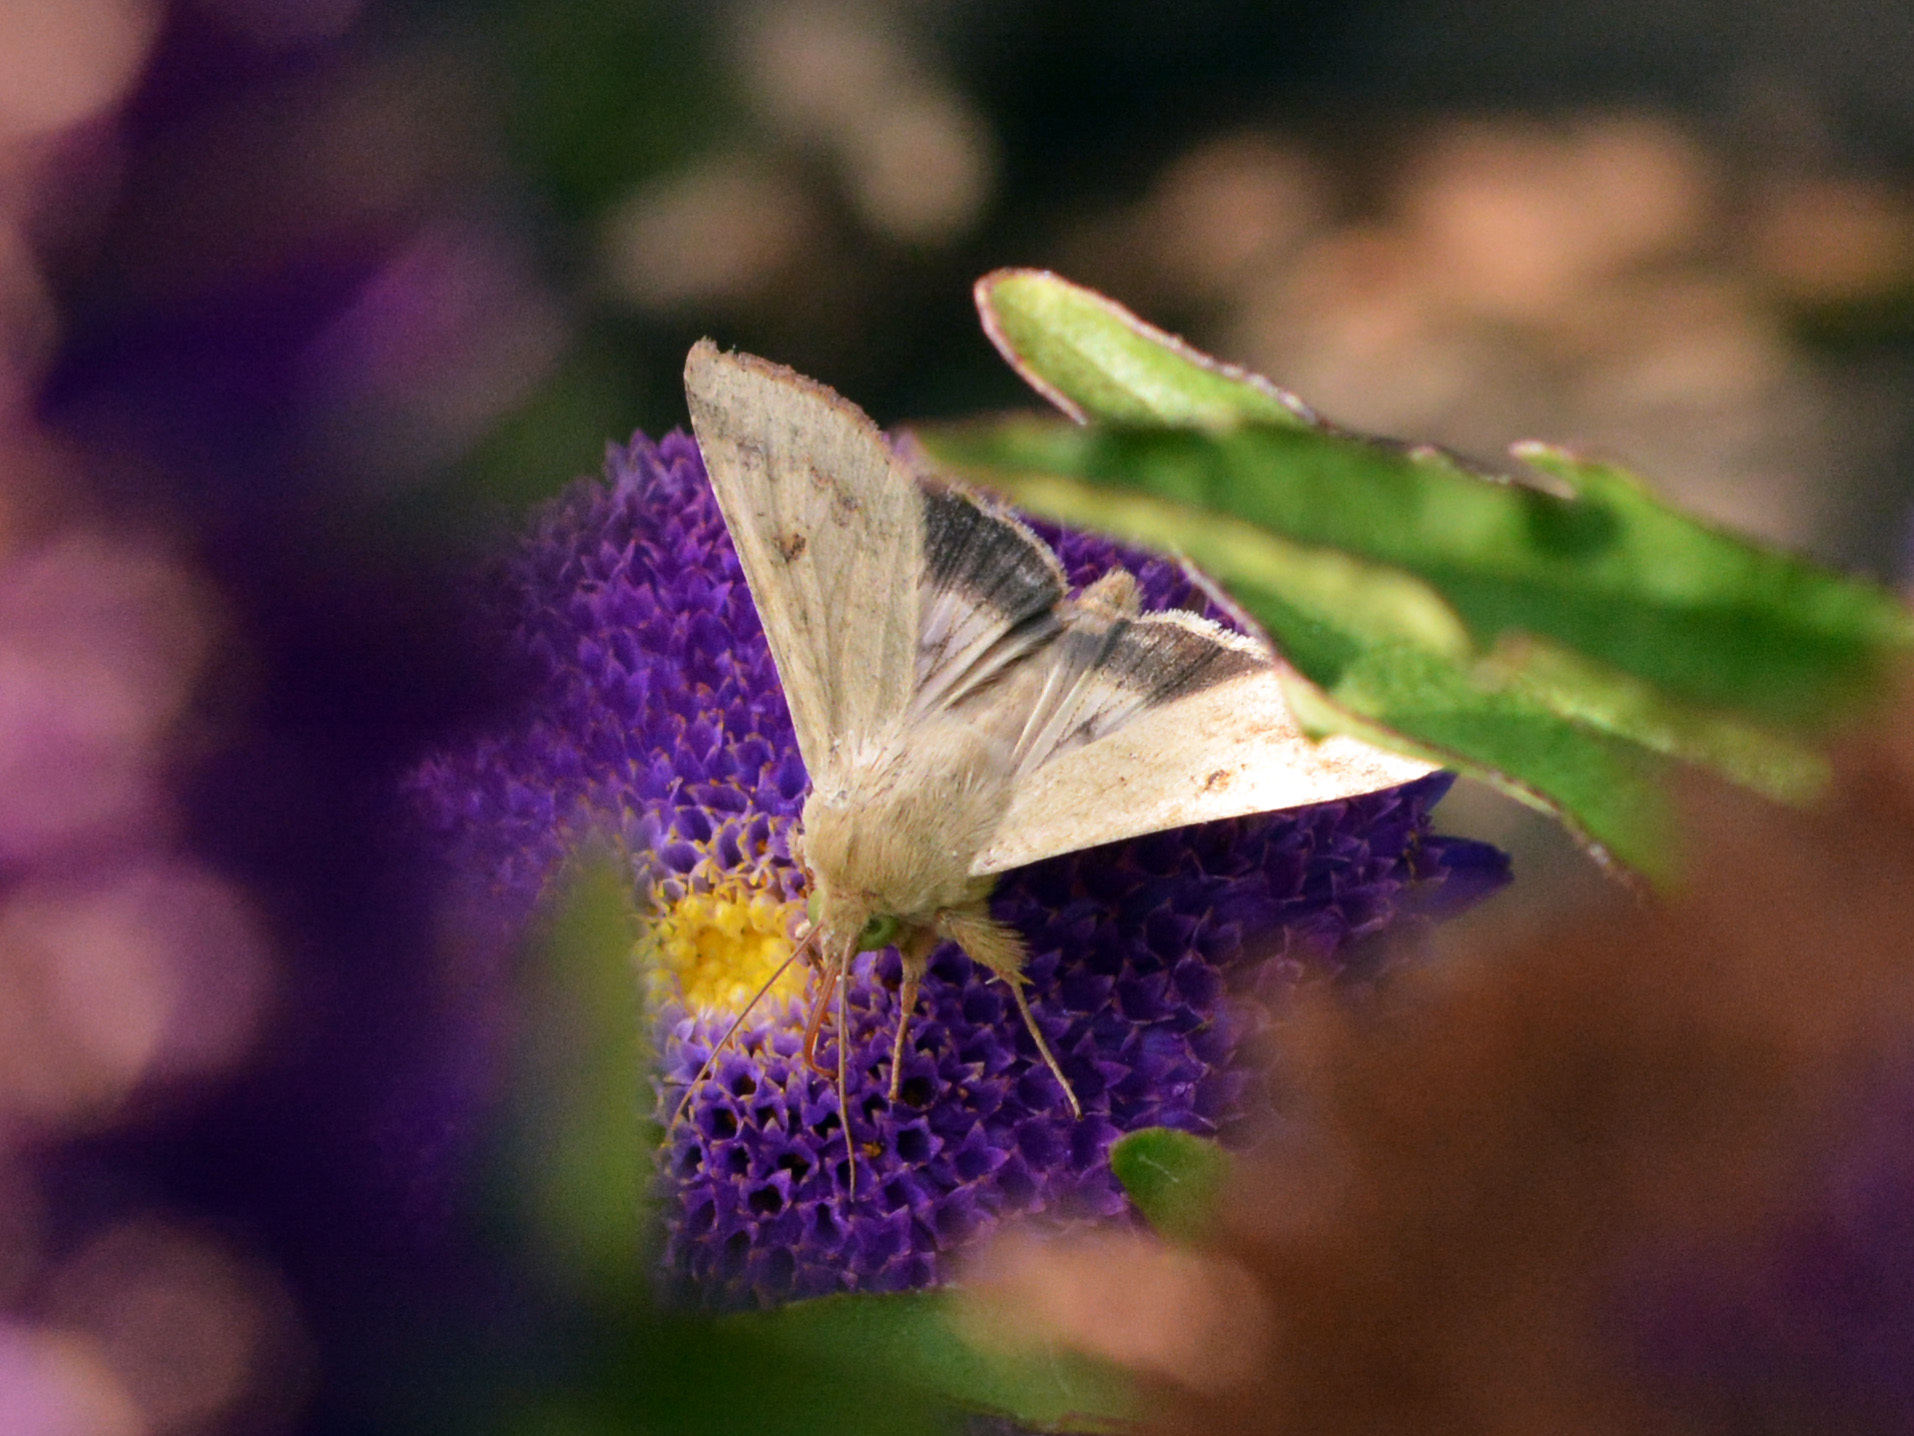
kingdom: Animalia
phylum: Arthropoda
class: Insecta
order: Lepidoptera
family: Noctuidae
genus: Helicoverpa
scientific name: Helicoverpa armigera
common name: Cotton bollworm
